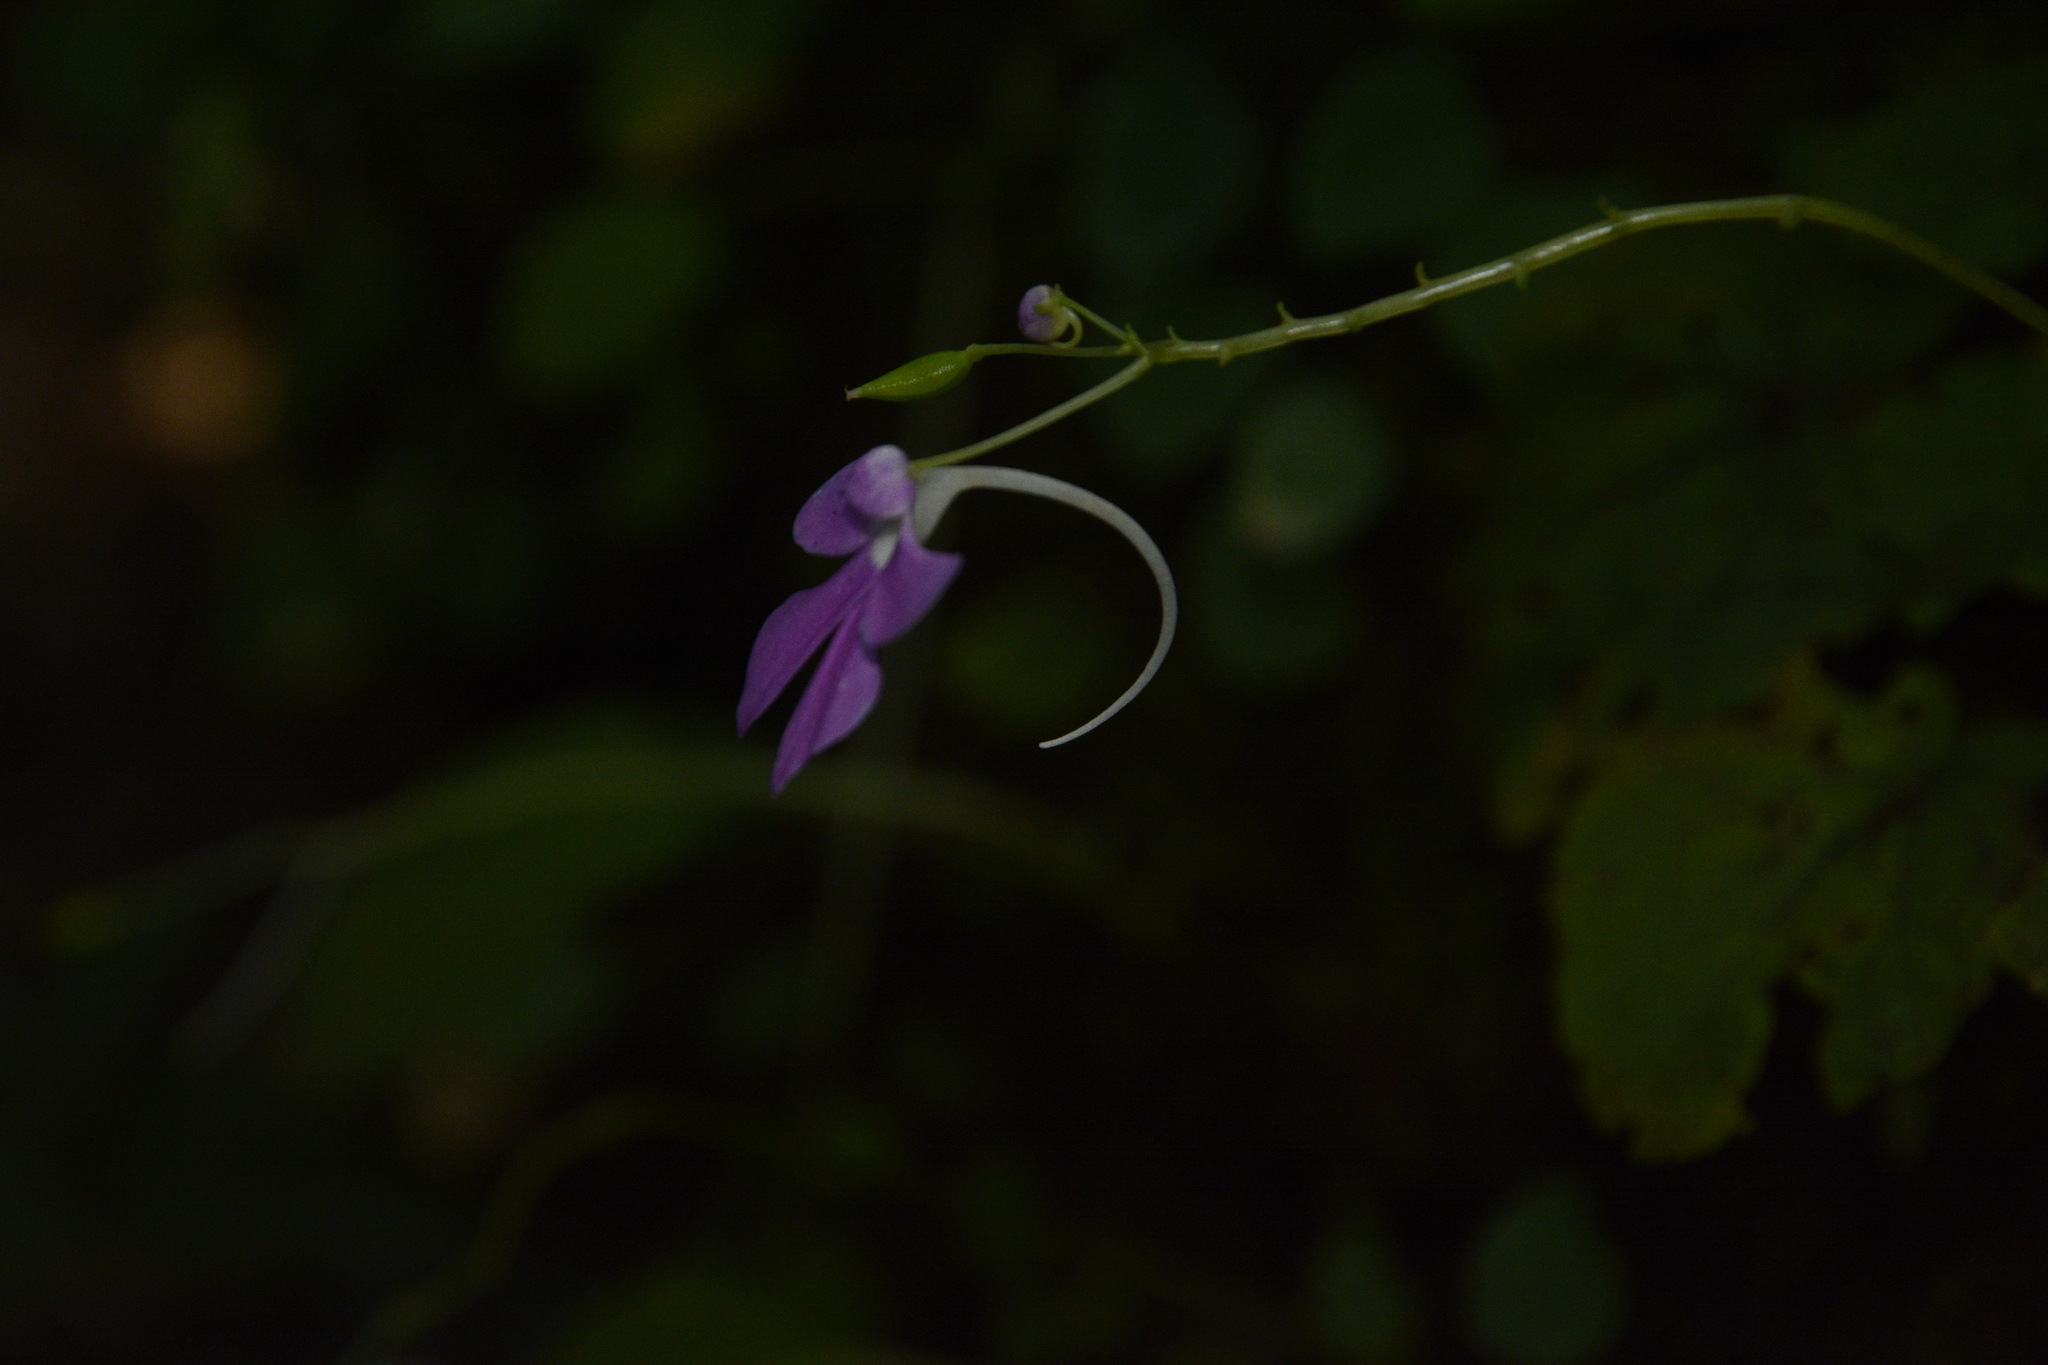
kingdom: Plantae
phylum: Tracheophyta
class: Magnoliopsida
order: Ericales
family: Balsaminaceae
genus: Impatiens
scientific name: Impatiens acaulis
